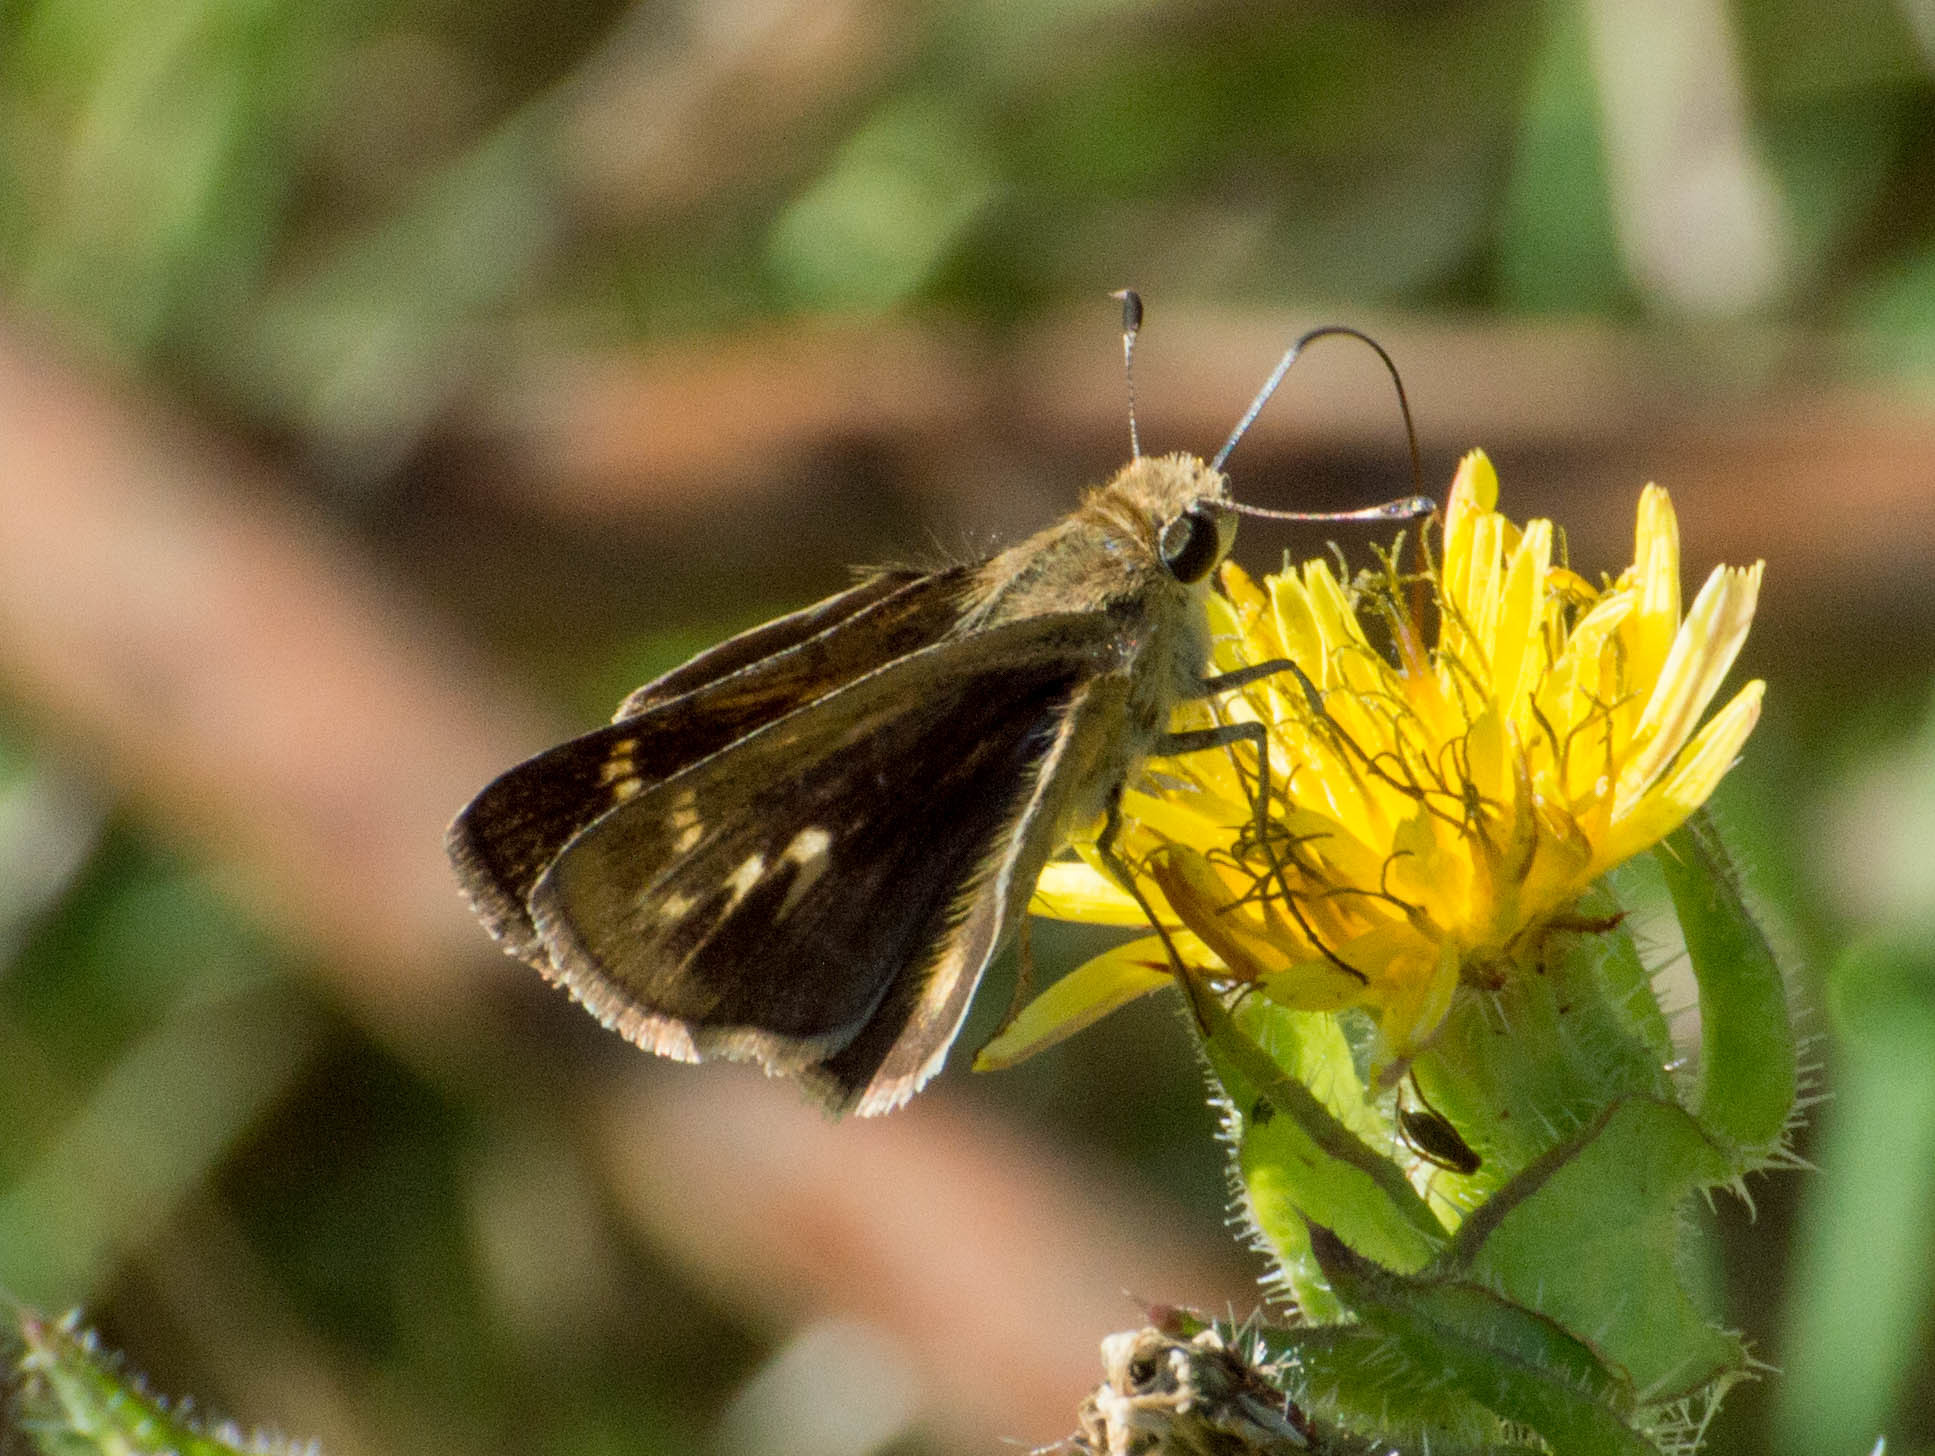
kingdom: Animalia
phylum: Arthropoda
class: Insecta
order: Lepidoptera
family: Hesperiidae
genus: Polites
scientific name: Polites vibex
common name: Whirlabout
